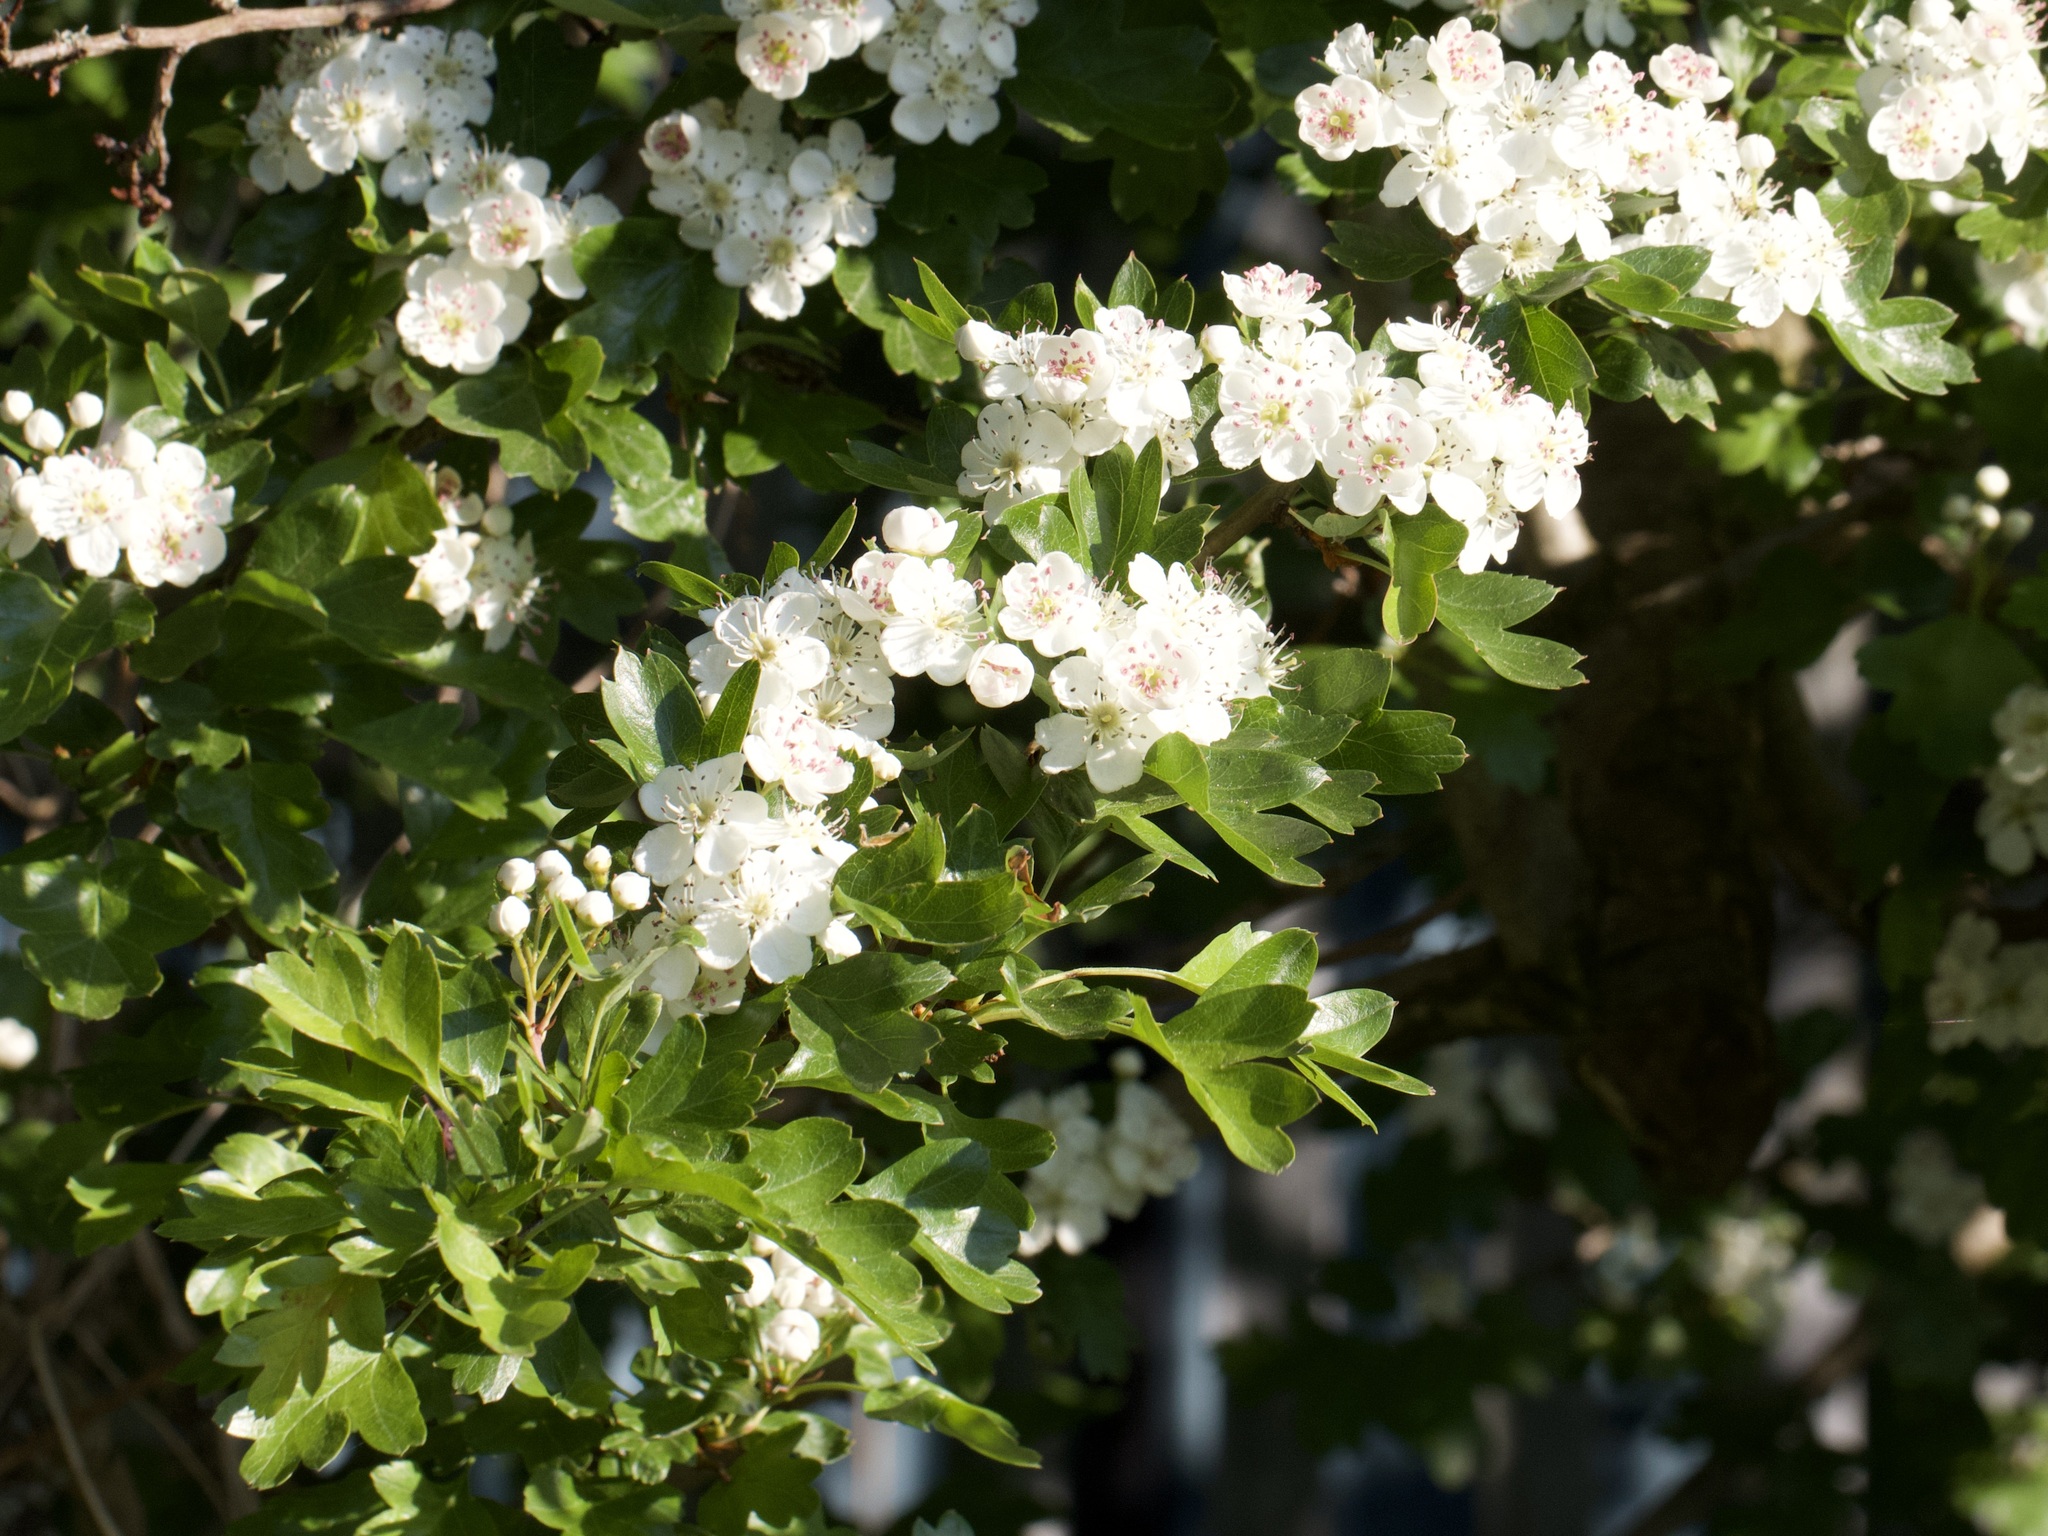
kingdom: Plantae
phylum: Tracheophyta
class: Magnoliopsida
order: Rosales
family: Rosaceae
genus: Crataegus
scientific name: Crataegus monogyna
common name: Hawthorn
